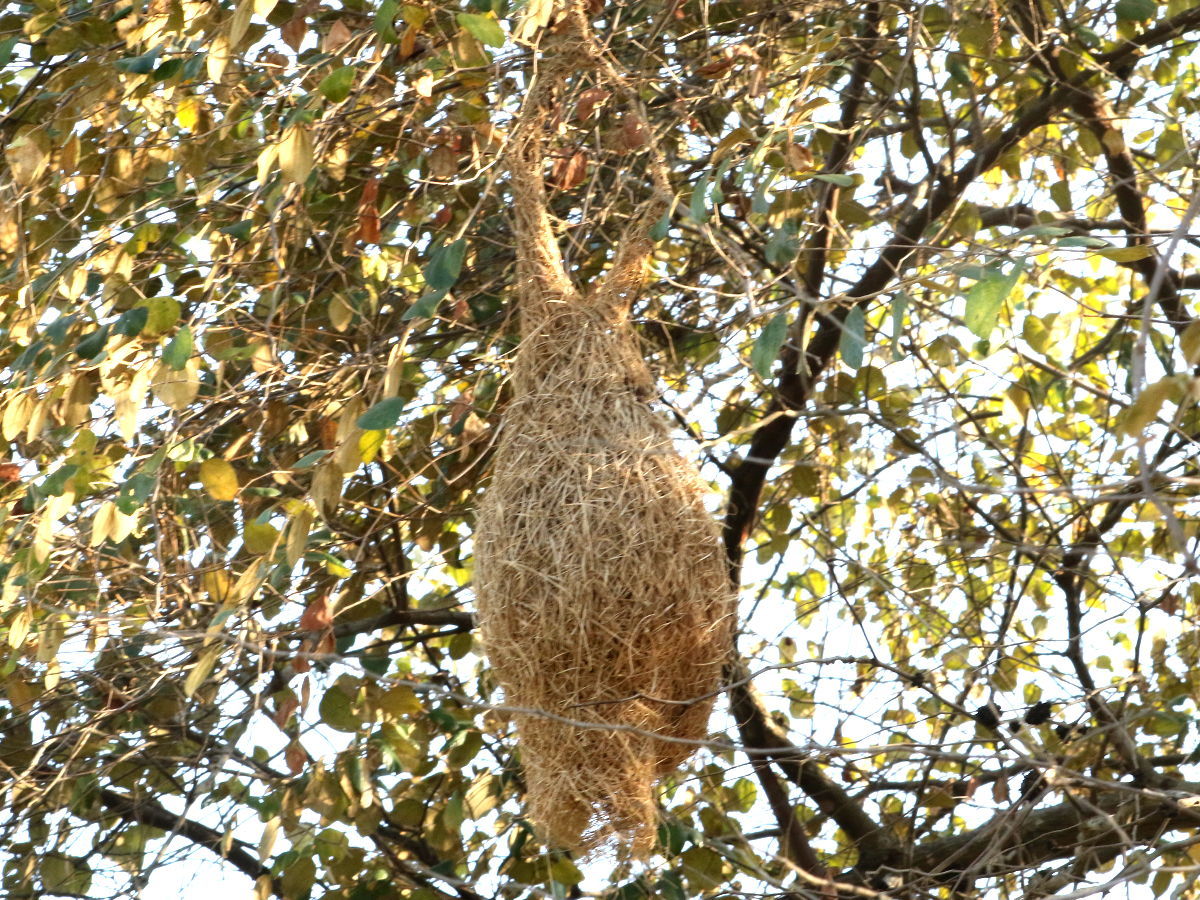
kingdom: Animalia
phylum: Chordata
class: Aves
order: Passeriformes
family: Ploceidae
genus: Ploceus
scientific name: Ploceus philippinus
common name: Baya weaver
